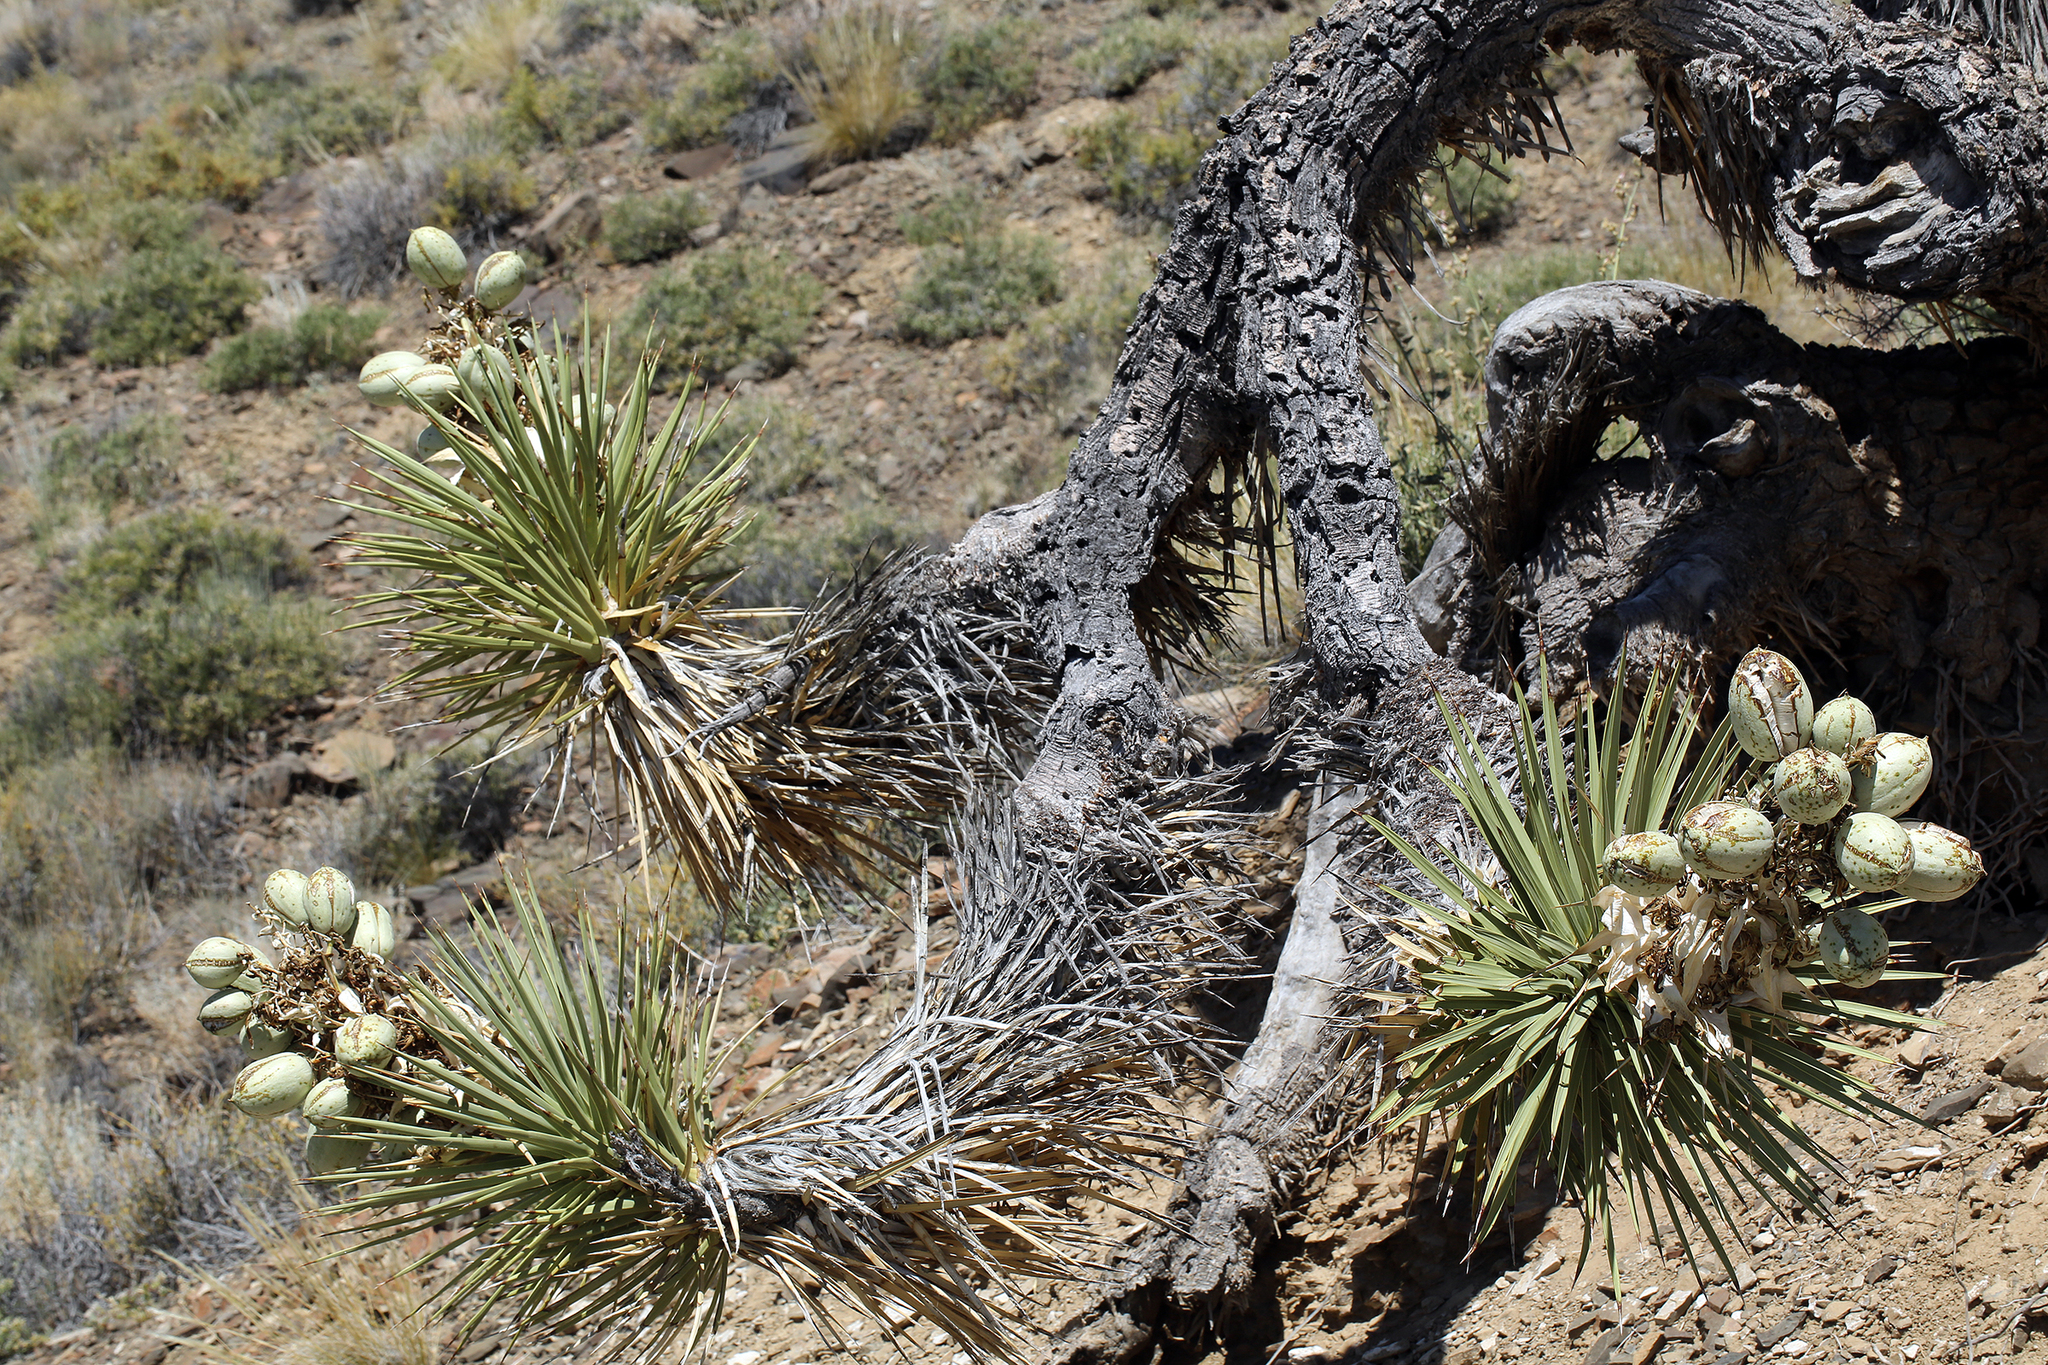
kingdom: Plantae
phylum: Tracheophyta
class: Liliopsida
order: Asparagales
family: Asparagaceae
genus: Yucca
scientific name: Yucca brevifolia
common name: Joshua tree
